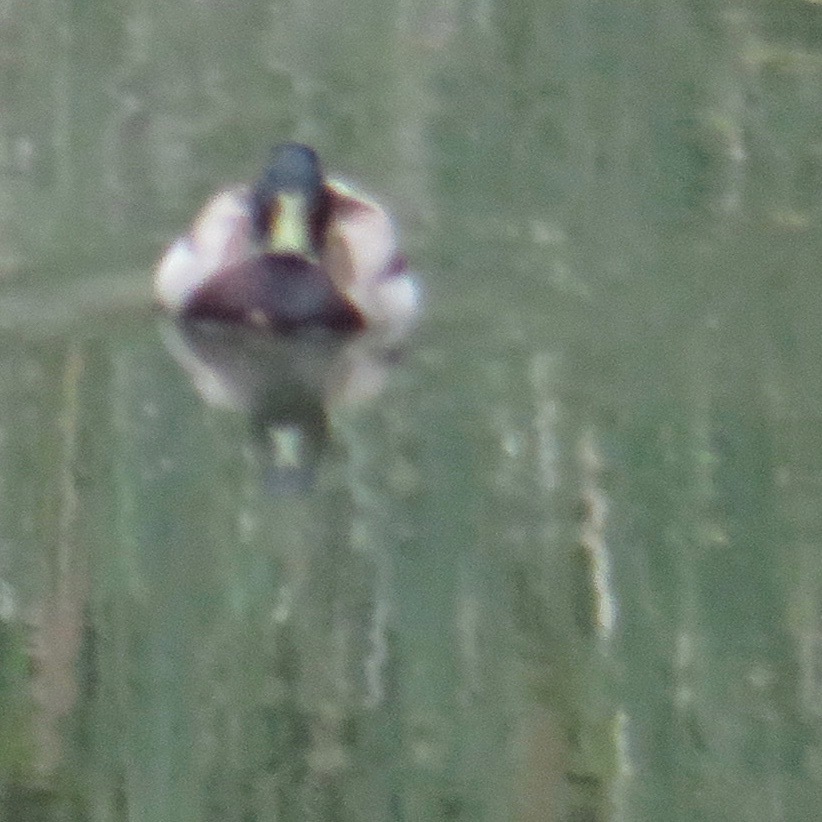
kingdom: Animalia
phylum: Chordata
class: Aves
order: Anseriformes
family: Anatidae
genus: Anas
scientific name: Anas platyrhynchos
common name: Mallard
